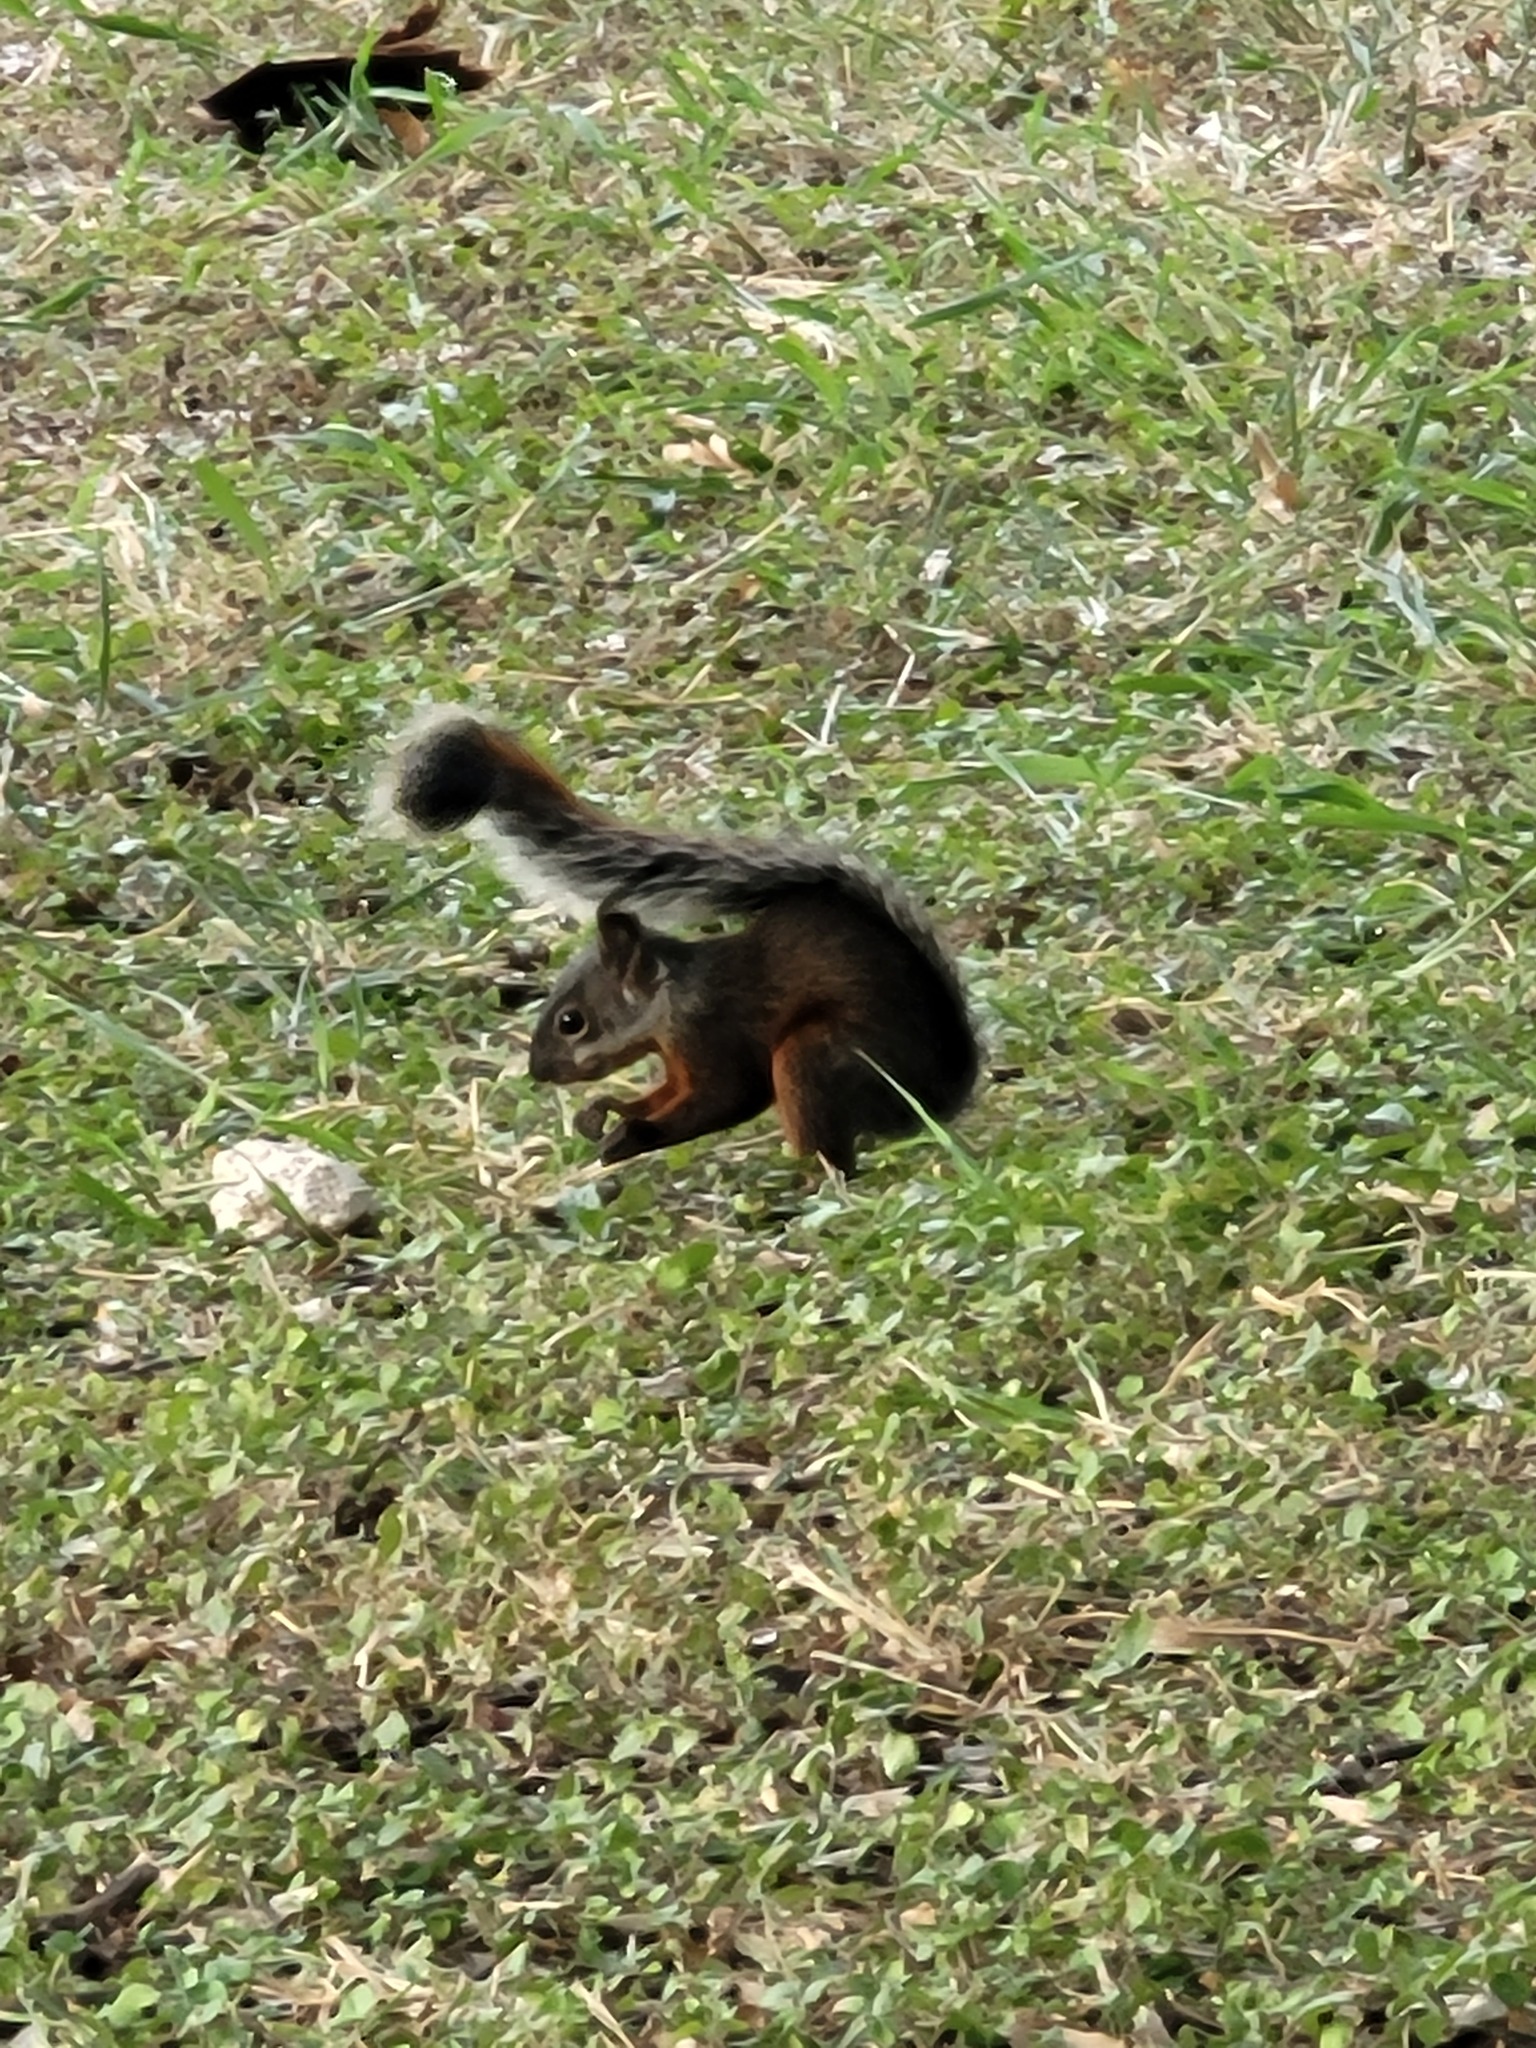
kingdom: Animalia
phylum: Chordata
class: Mammalia
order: Rodentia
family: Sciuridae
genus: Sciurus
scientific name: Sciurus aureogaster
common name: Red-bellied squirrel
